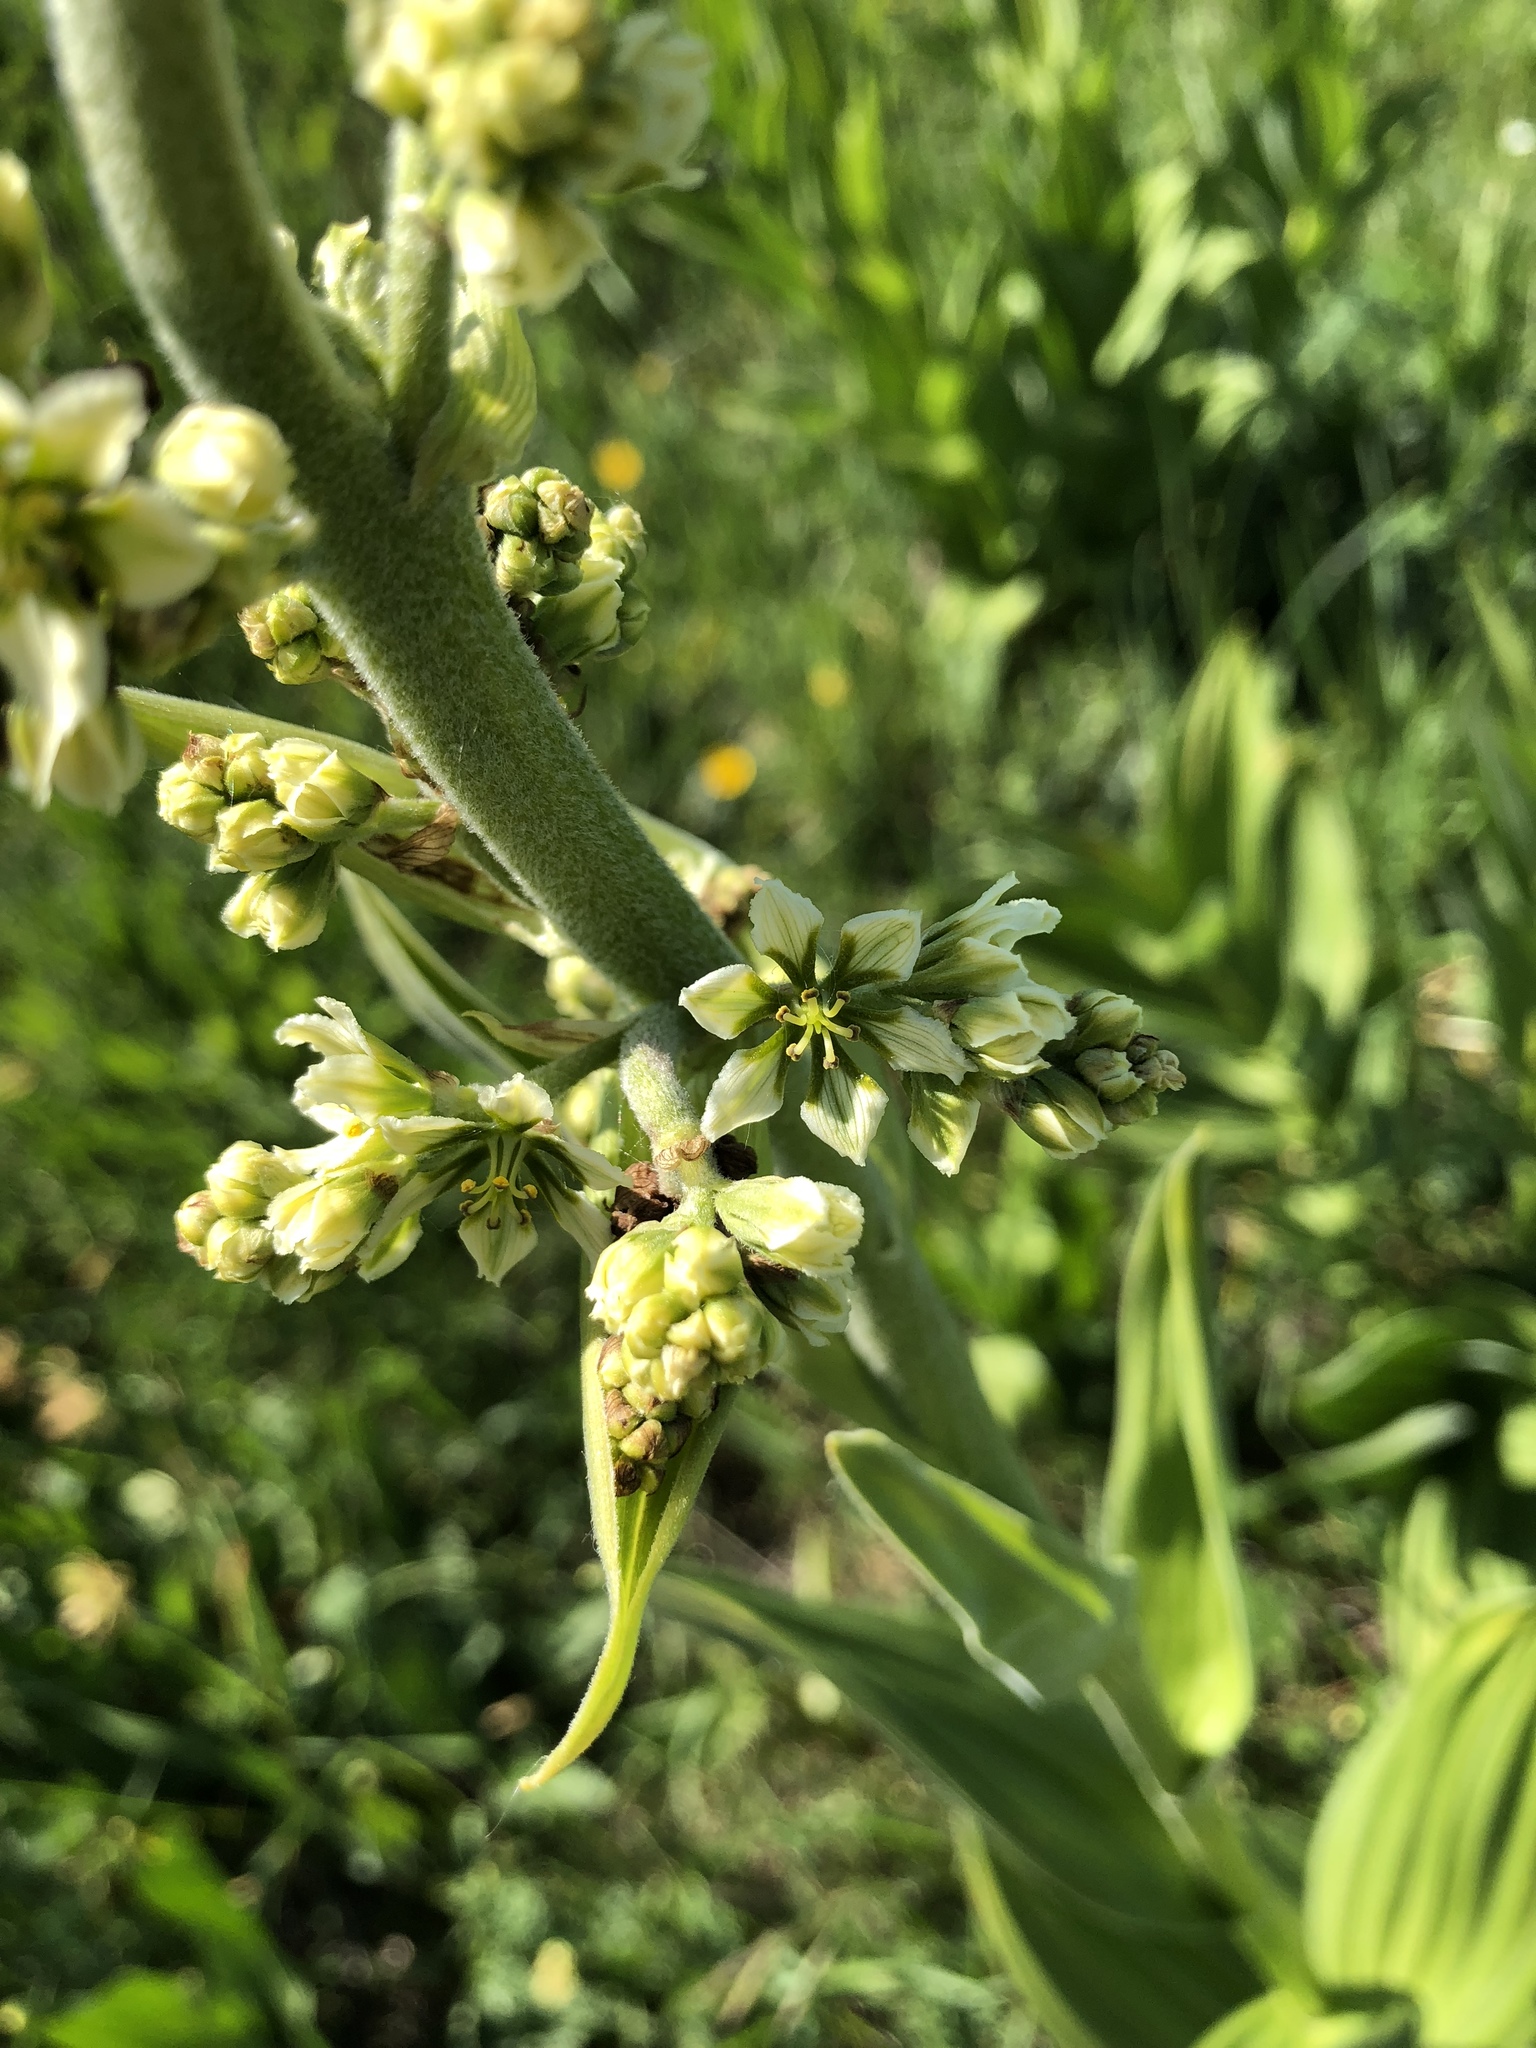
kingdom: Plantae
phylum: Tracheophyta
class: Liliopsida
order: Liliales
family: Melanthiaceae
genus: Veratrum
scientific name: Veratrum album
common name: White veratrum
